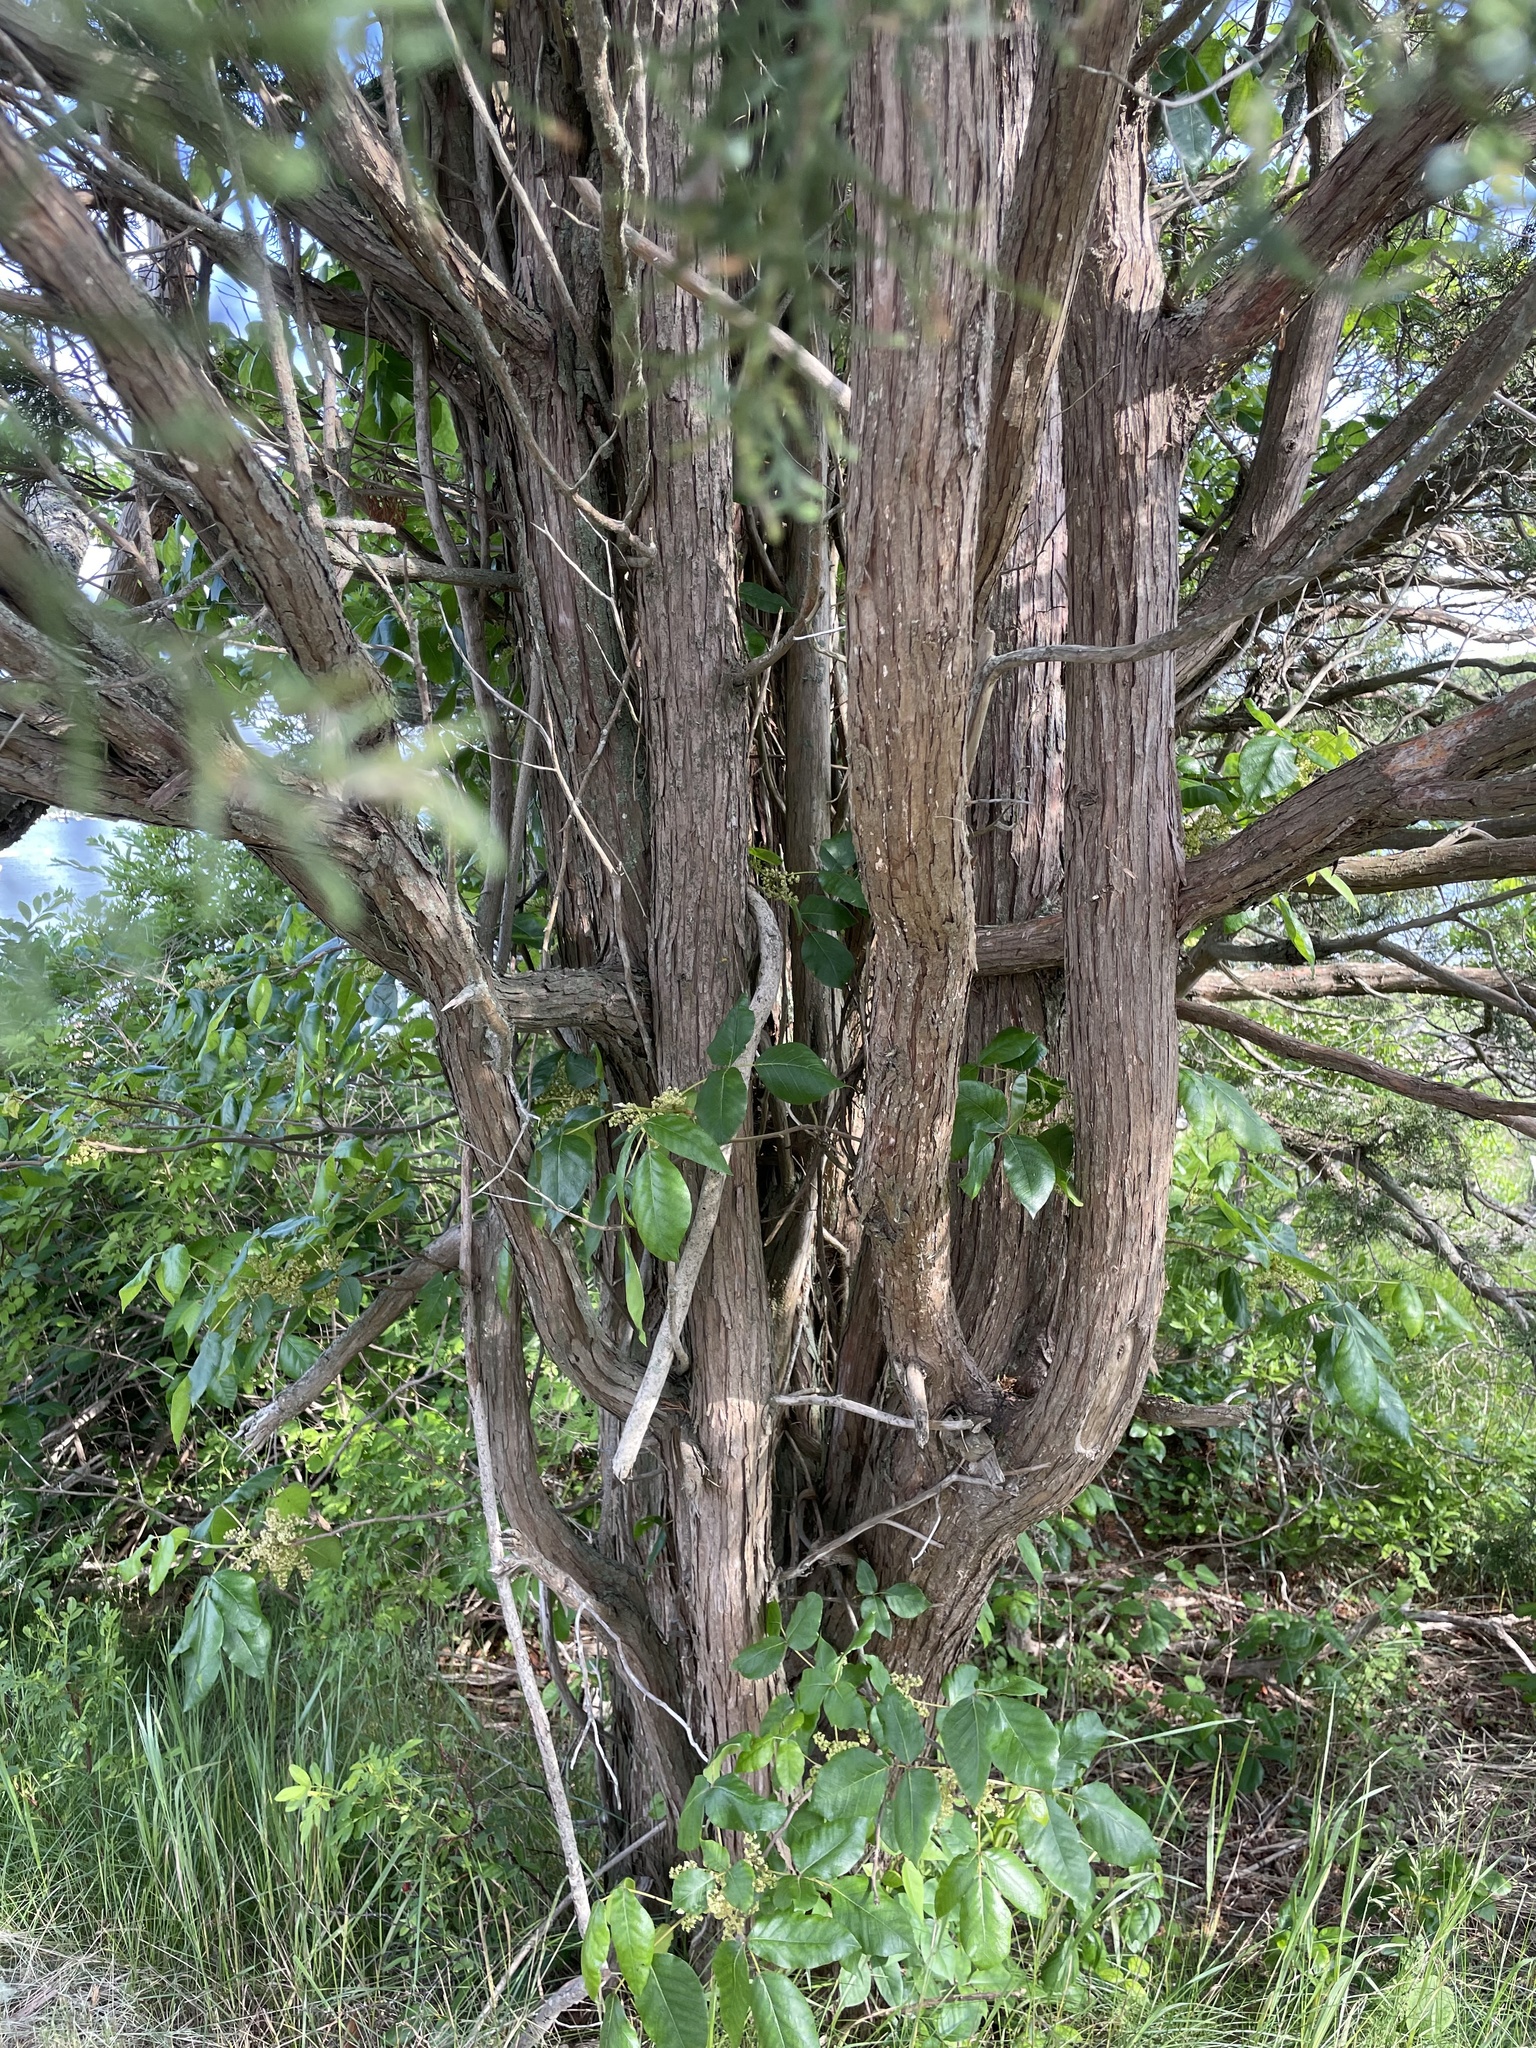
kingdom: Plantae
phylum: Tracheophyta
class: Pinopsida
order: Pinales
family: Cupressaceae
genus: Juniperus
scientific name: Juniperus virginiana
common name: Red juniper
